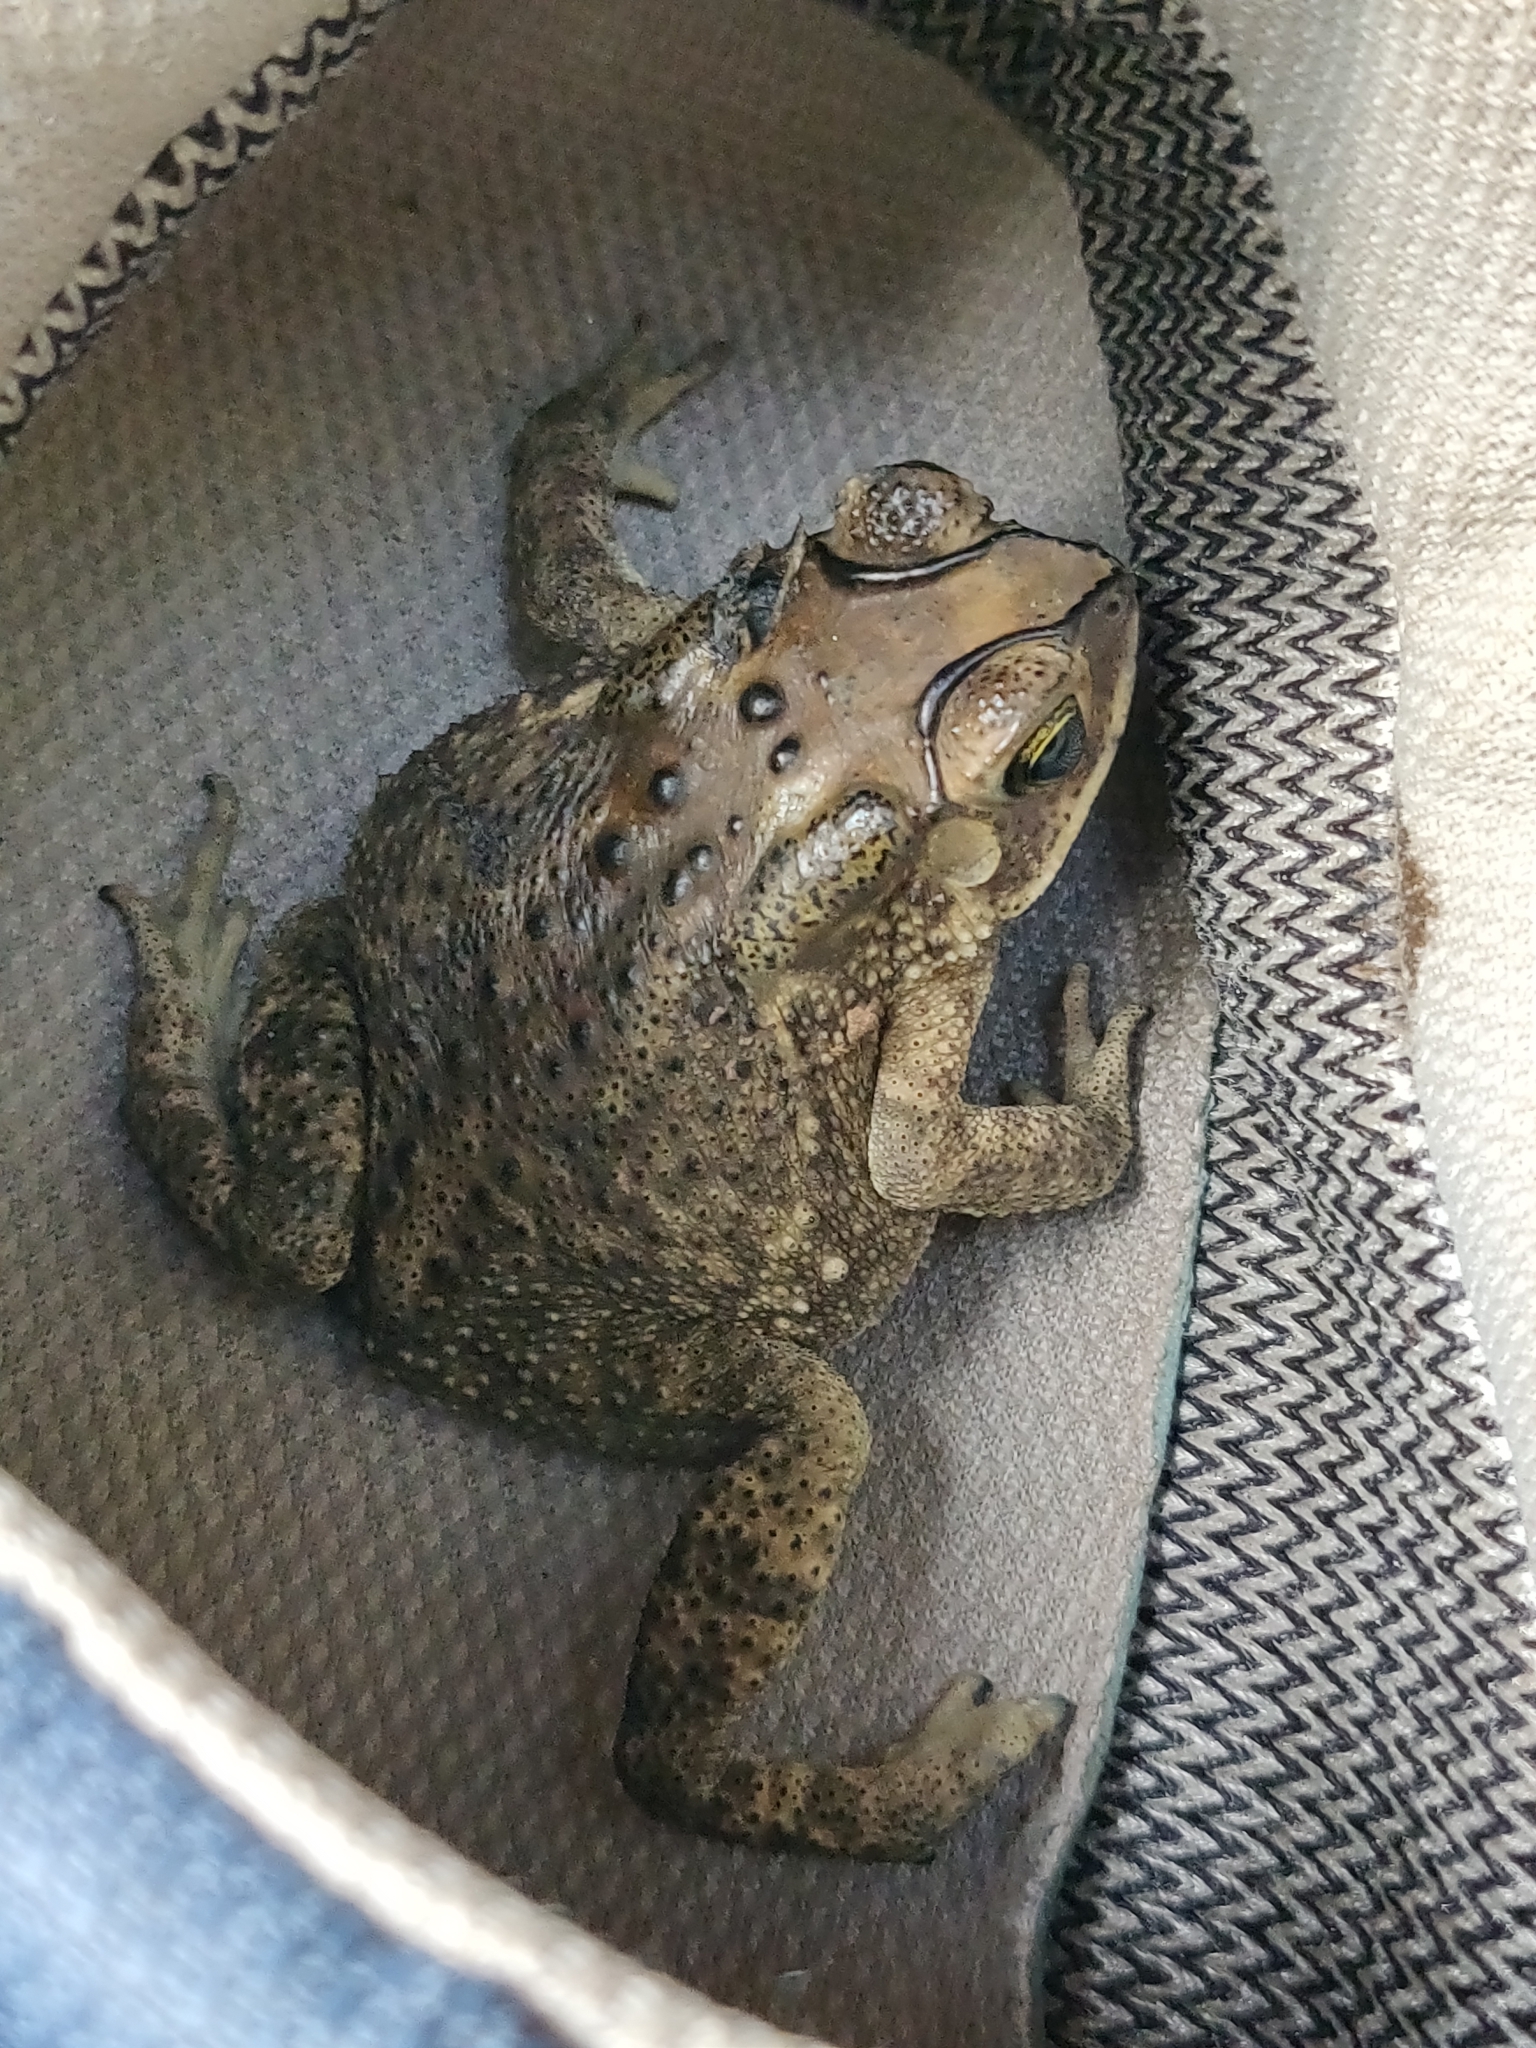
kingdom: Animalia
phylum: Chordata
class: Amphibia
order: Anura
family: Bufonidae
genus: Duttaphrynus
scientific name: Duttaphrynus melanostictus
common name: Common sunda toad
